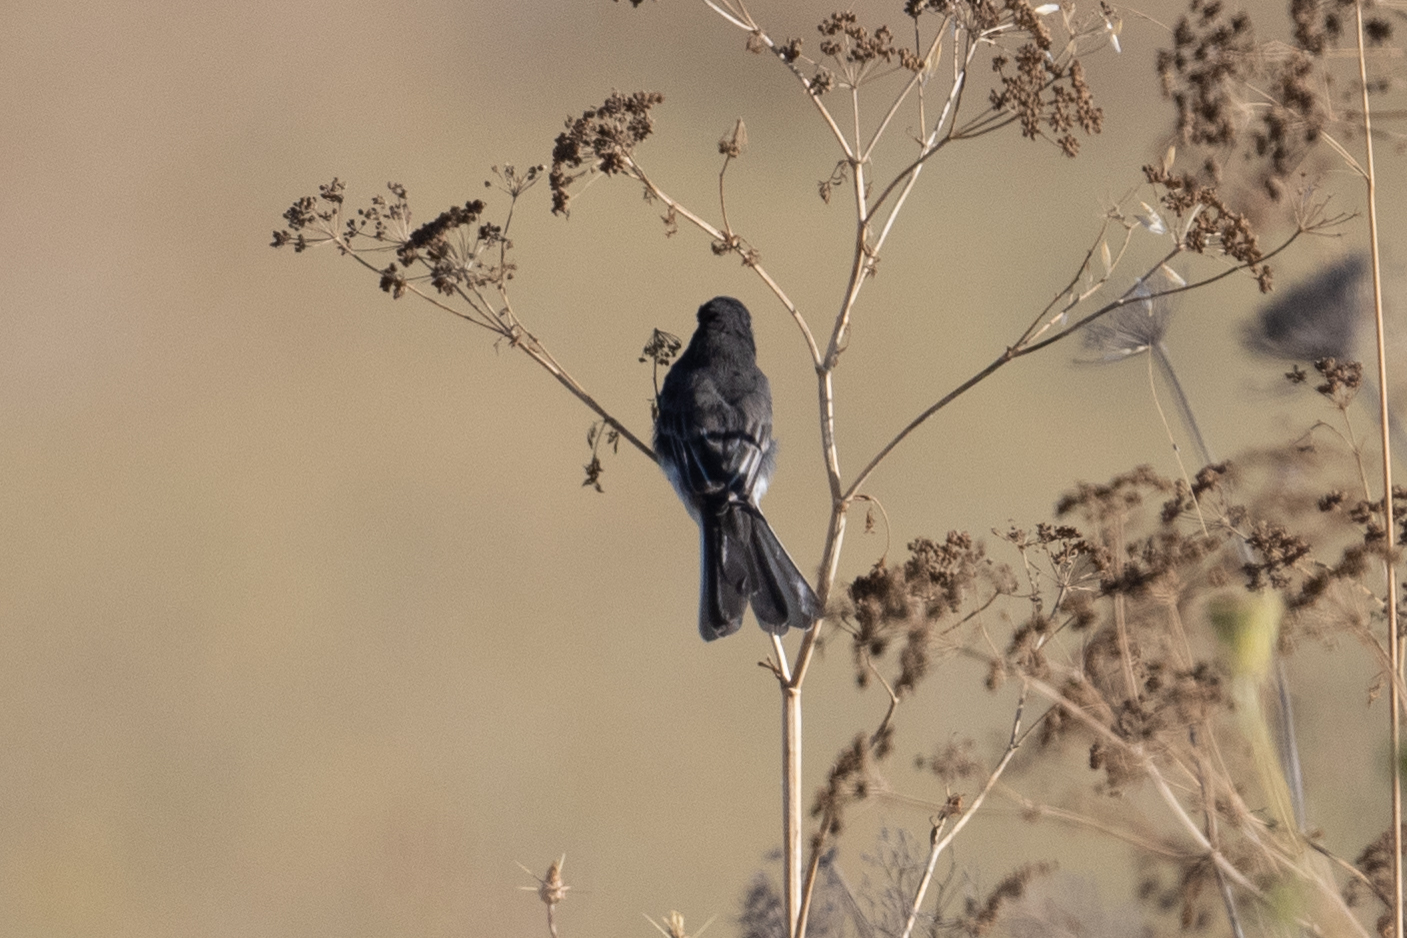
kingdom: Animalia
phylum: Chordata
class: Aves
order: Passeriformes
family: Tyrannidae
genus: Sayornis
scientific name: Sayornis nigricans
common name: Black phoebe
